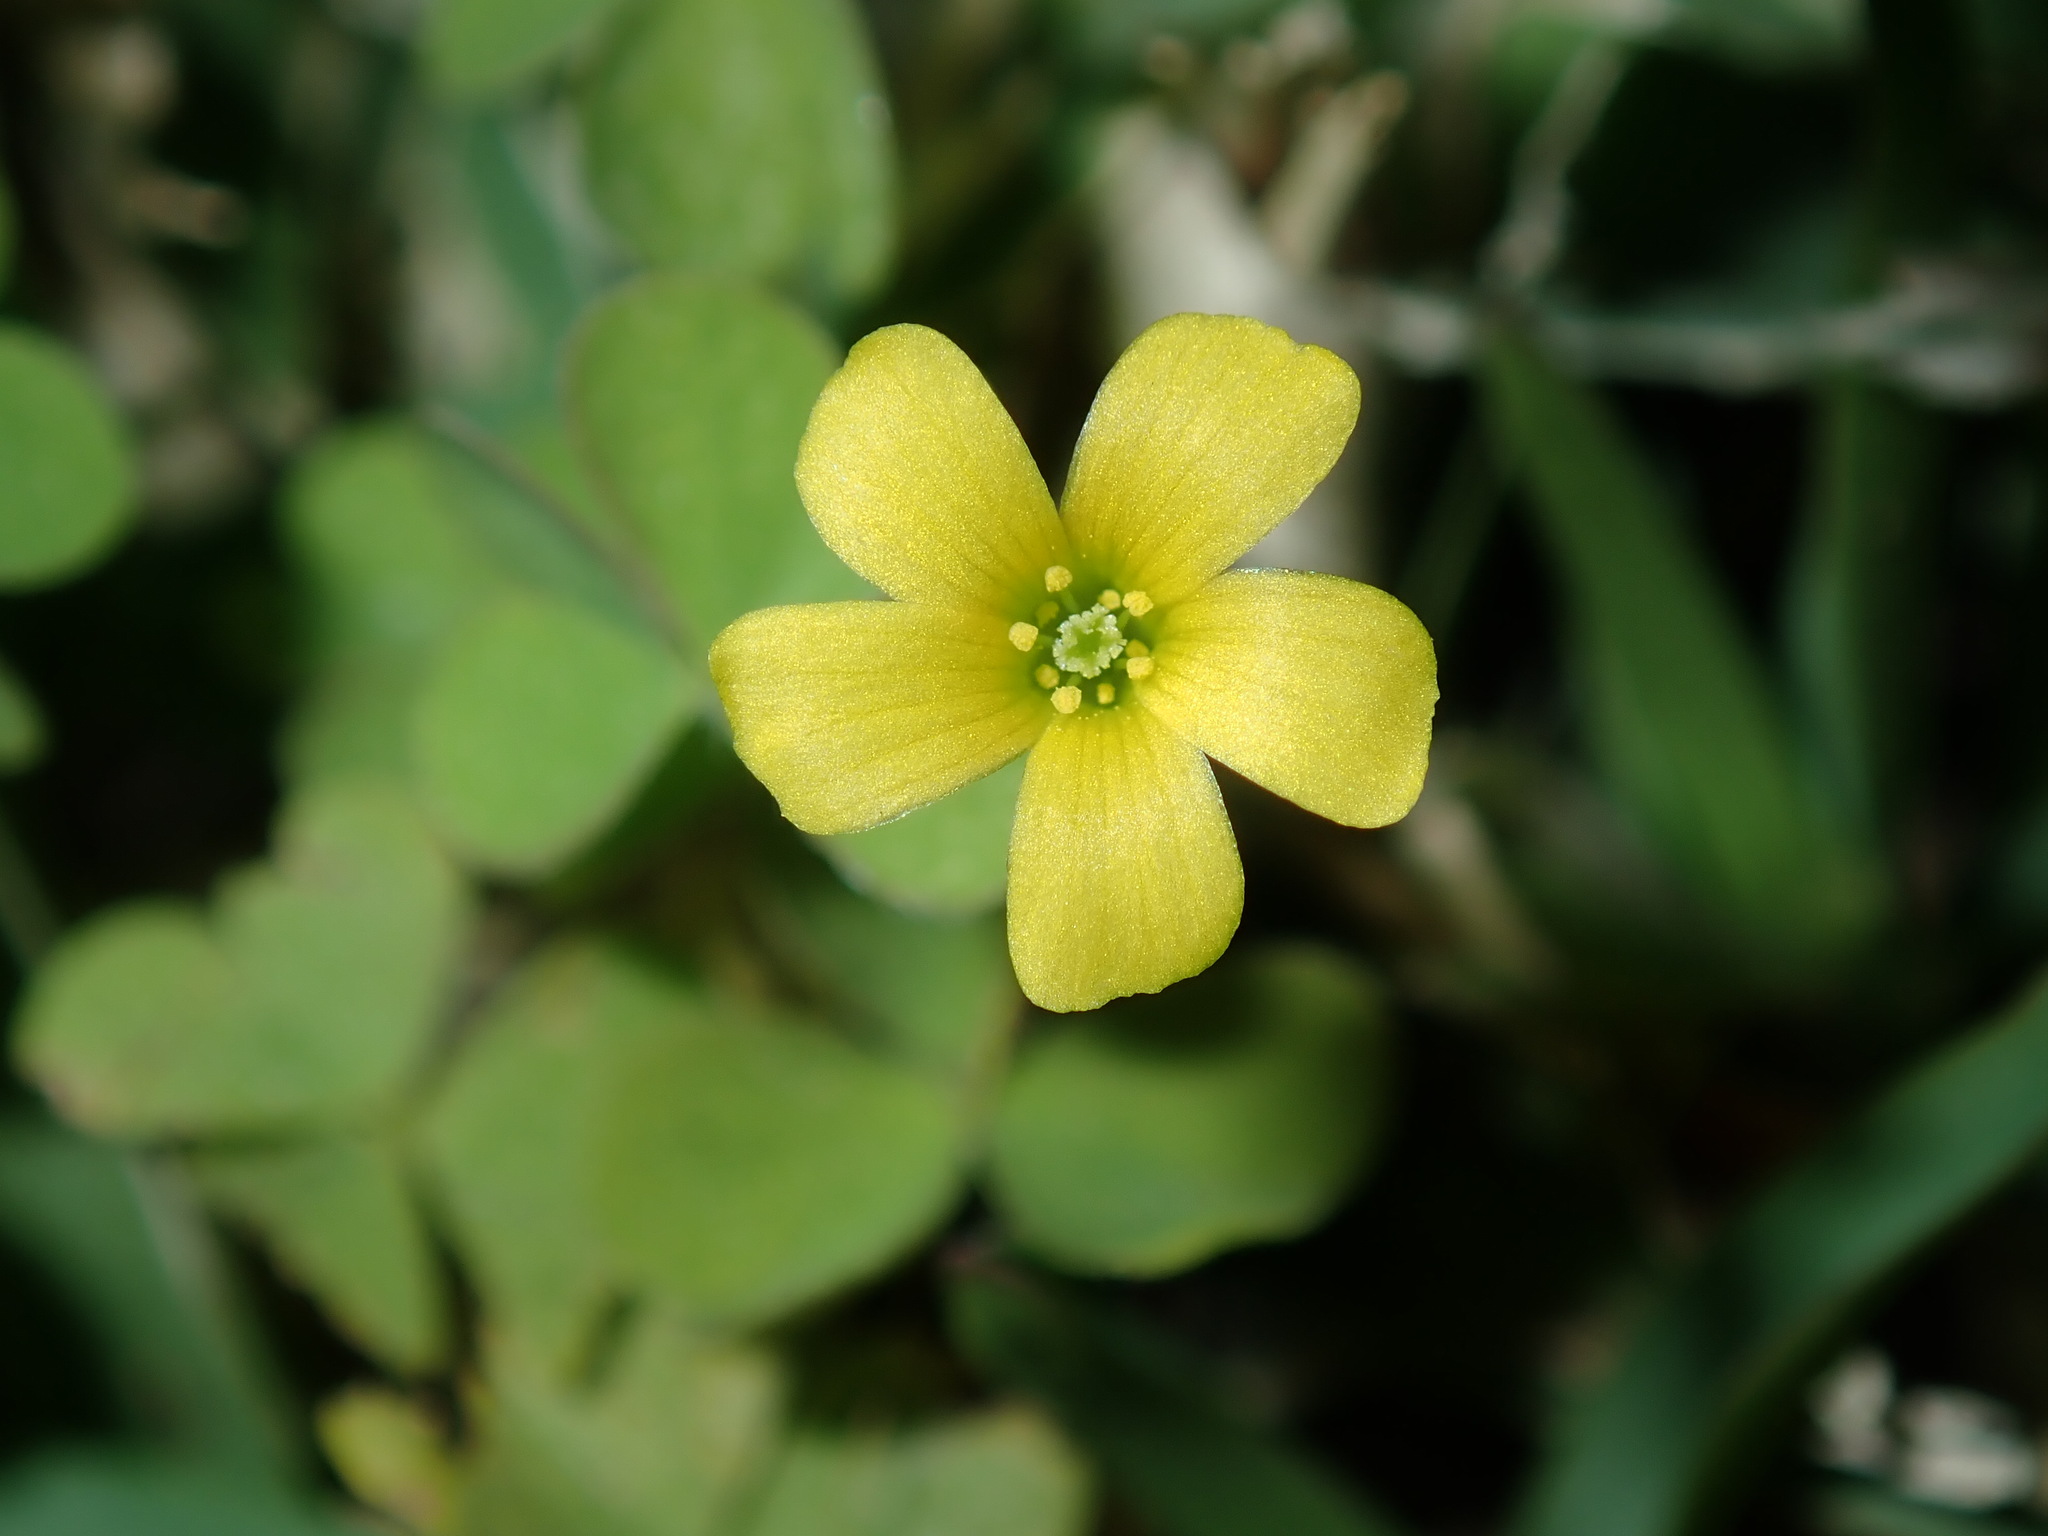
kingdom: Plantae
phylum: Tracheophyta
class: Magnoliopsida
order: Oxalidales
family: Oxalidaceae
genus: Oxalis
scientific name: Oxalis corniculata
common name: Procumbent yellow-sorrel
